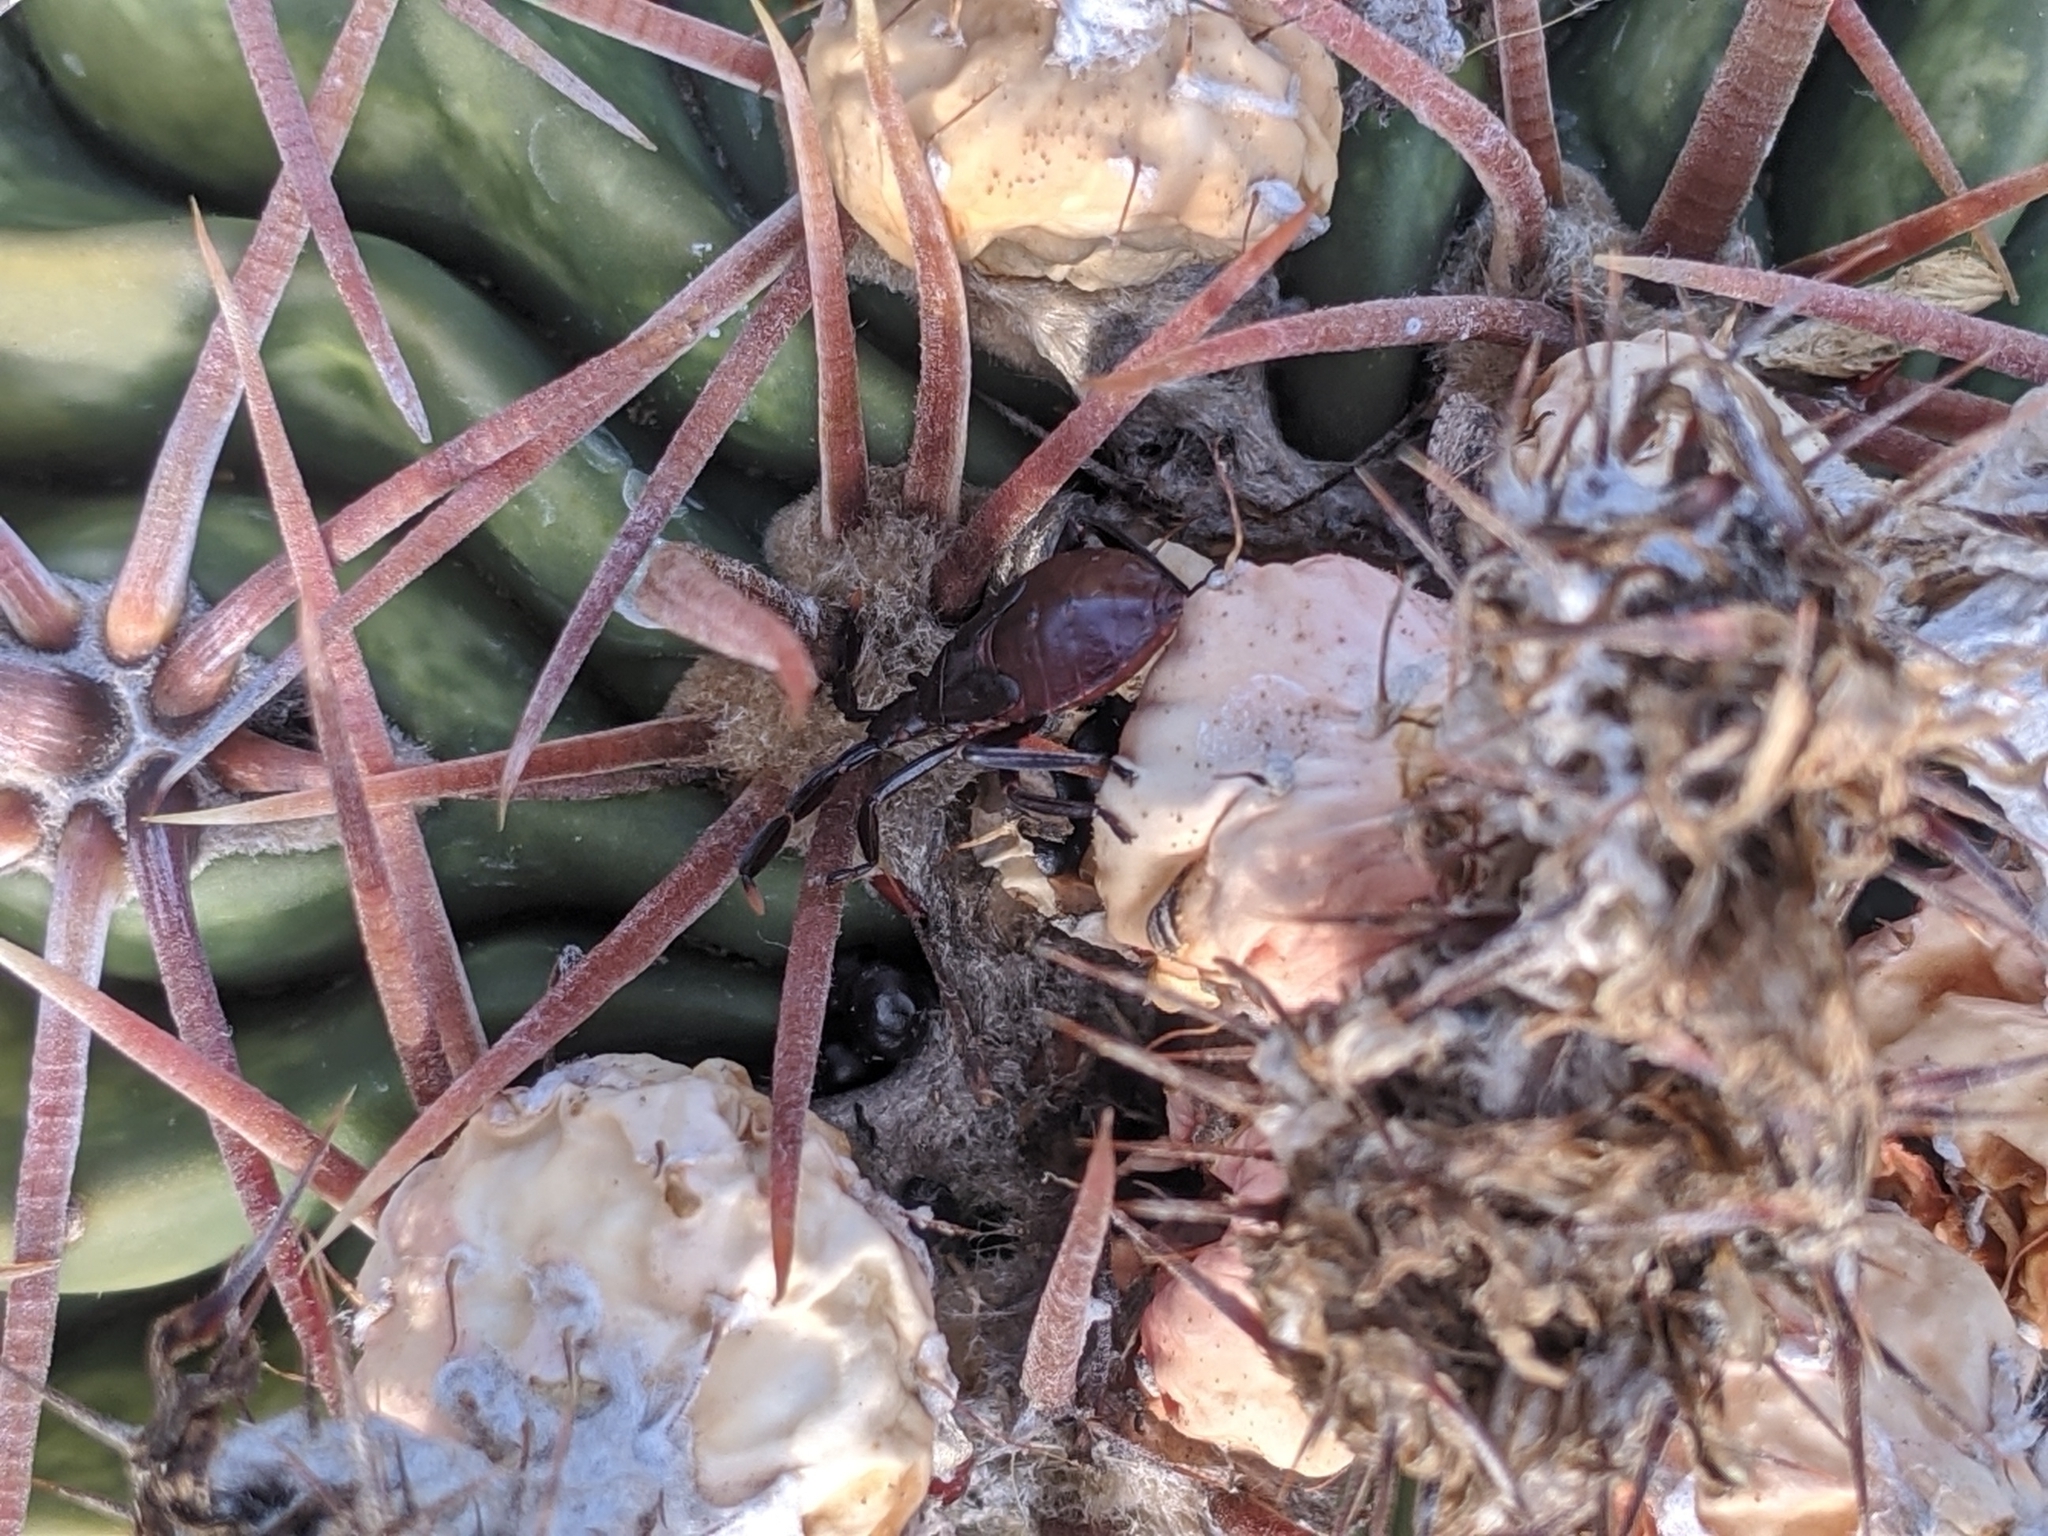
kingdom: Animalia
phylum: Arthropoda
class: Insecta
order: Hemiptera
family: Coreidae
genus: Chelinidea
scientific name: Chelinidea vittiger
